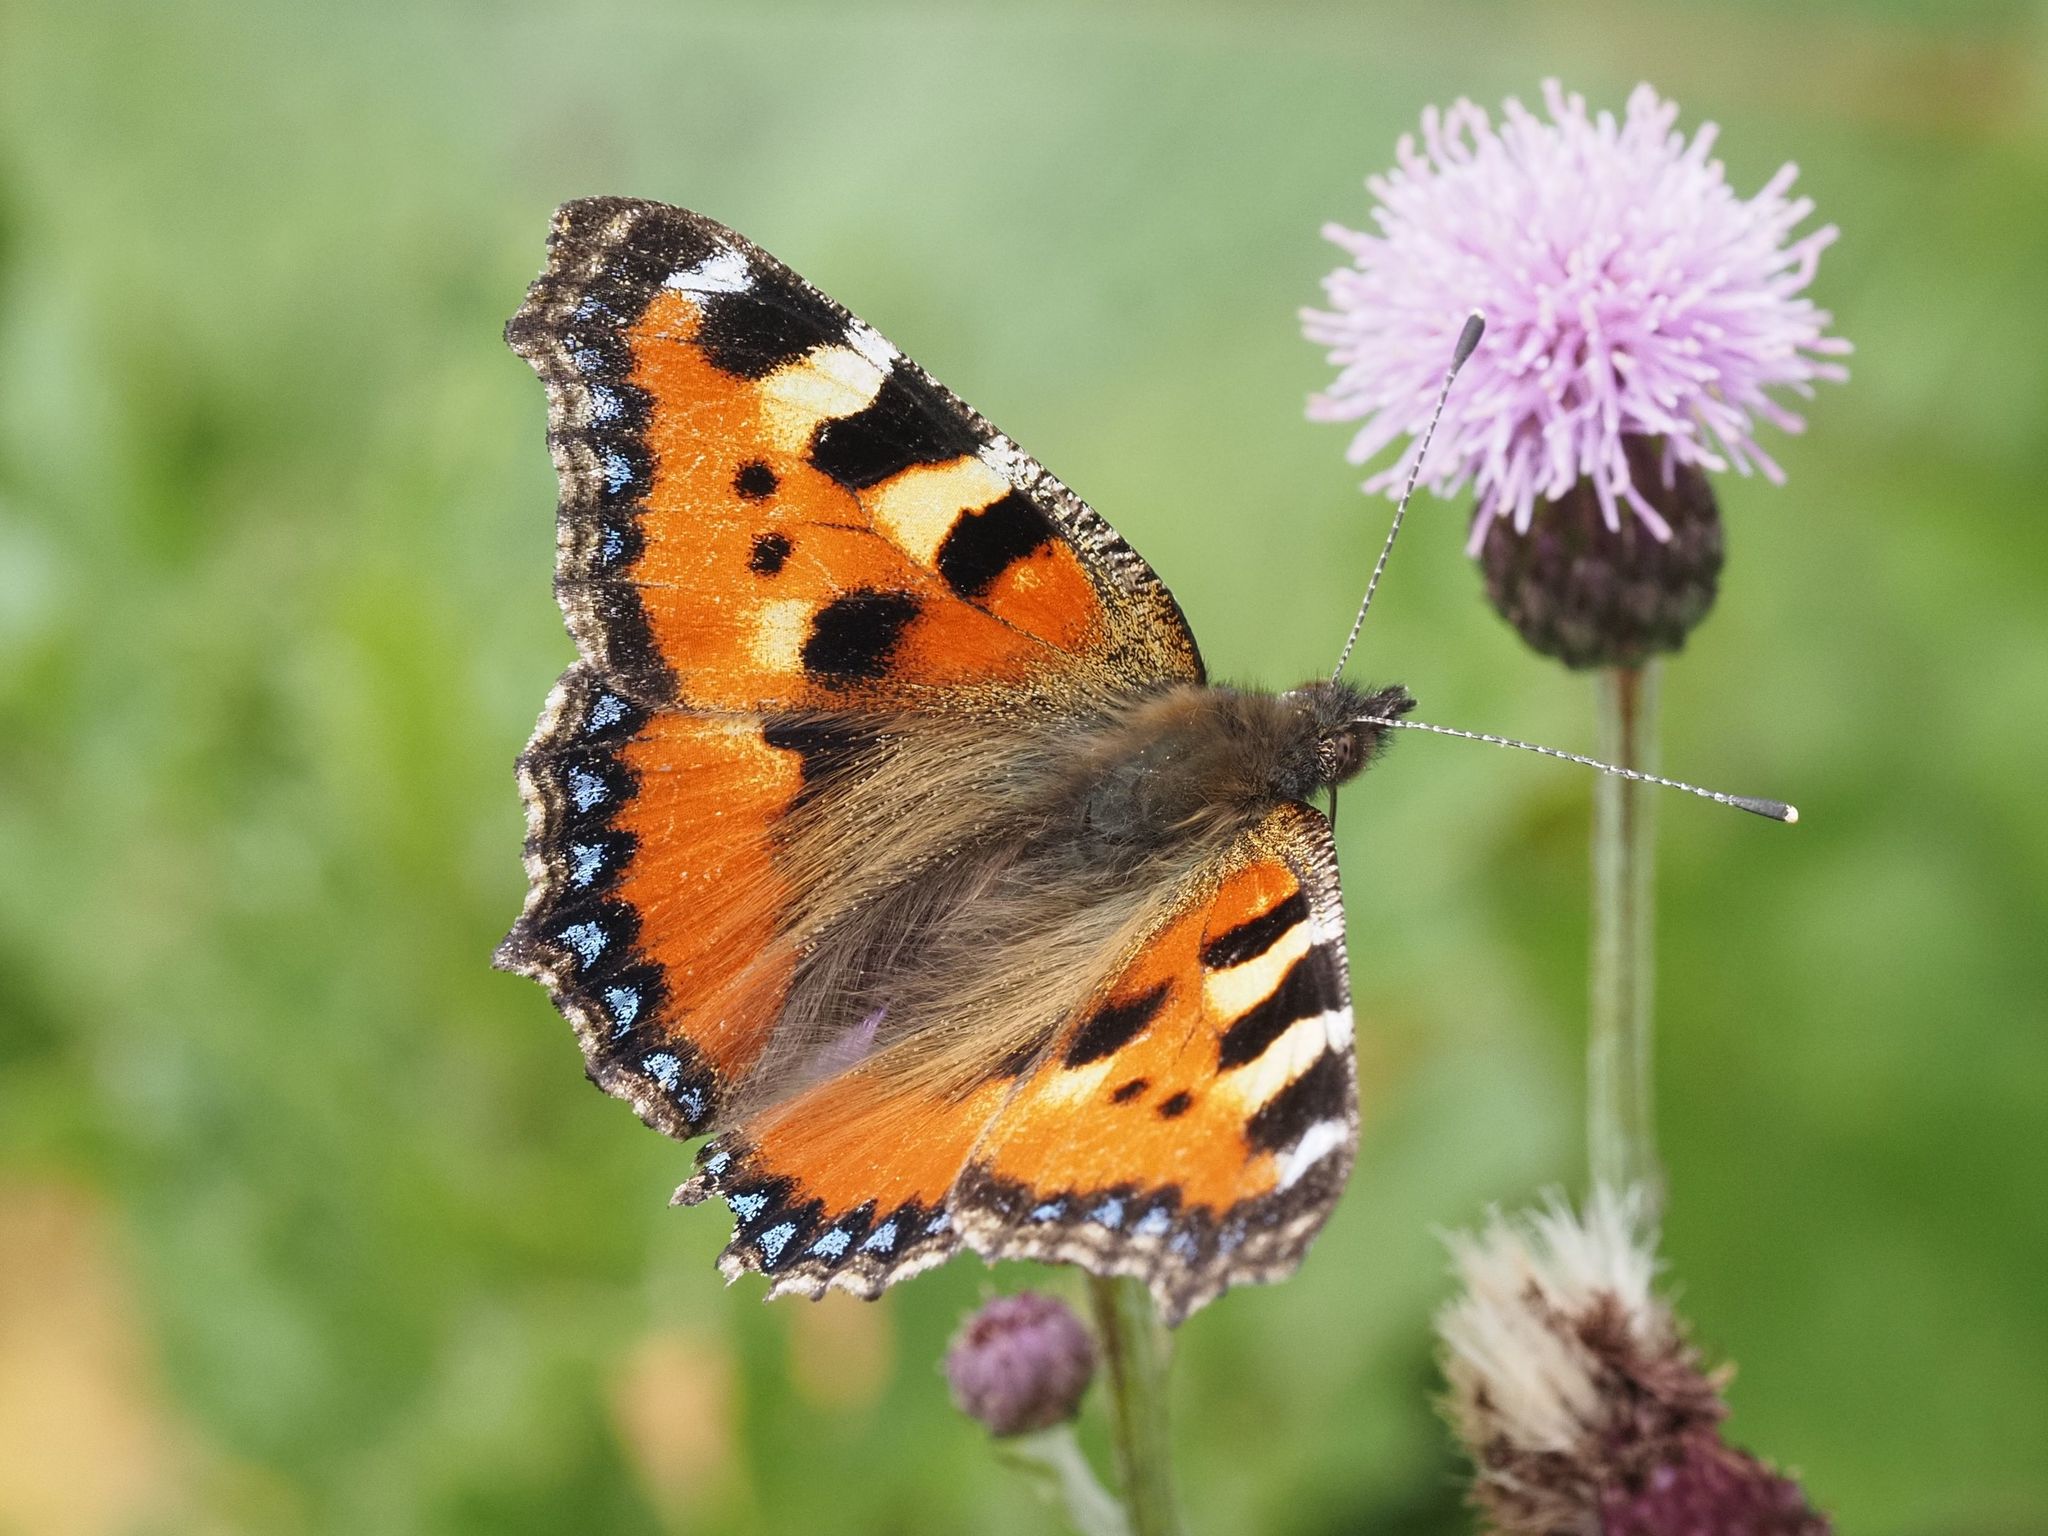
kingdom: Animalia
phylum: Arthropoda
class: Insecta
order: Lepidoptera
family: Nymphalidae
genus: Aglais
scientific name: Aglais urticae
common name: Small tortoiseshell
